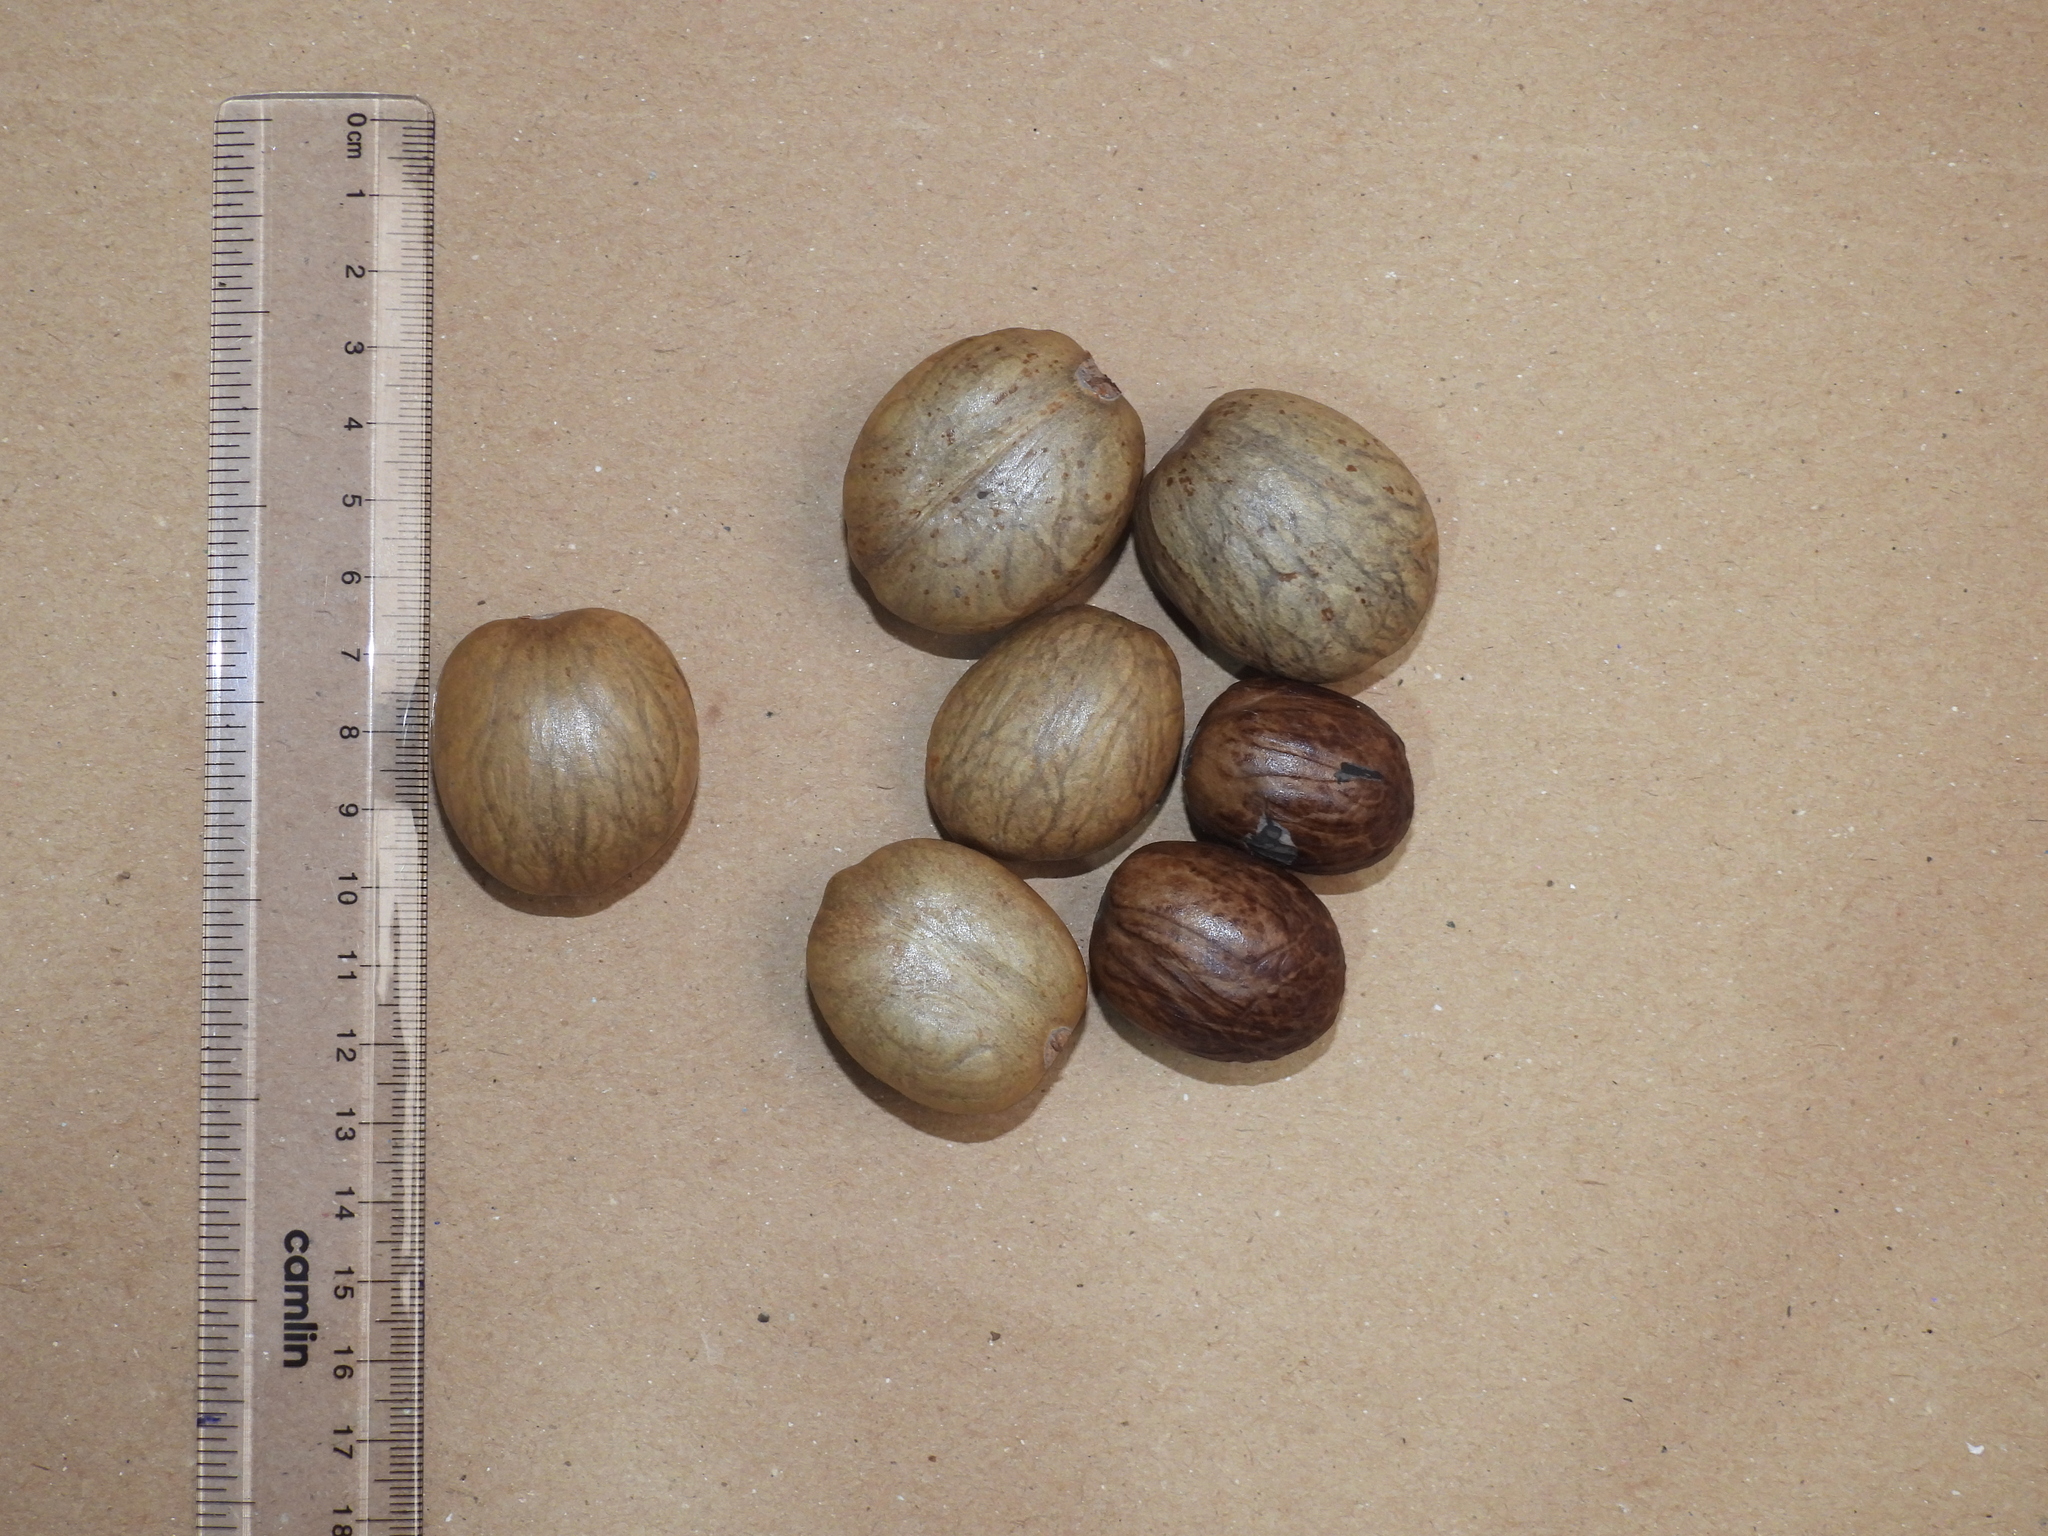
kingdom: Plantae
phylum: Tracheophyta
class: Magnoliopsida
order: Magnoliales
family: Myristicaceae
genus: Myristica
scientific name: Myristica beddomei
